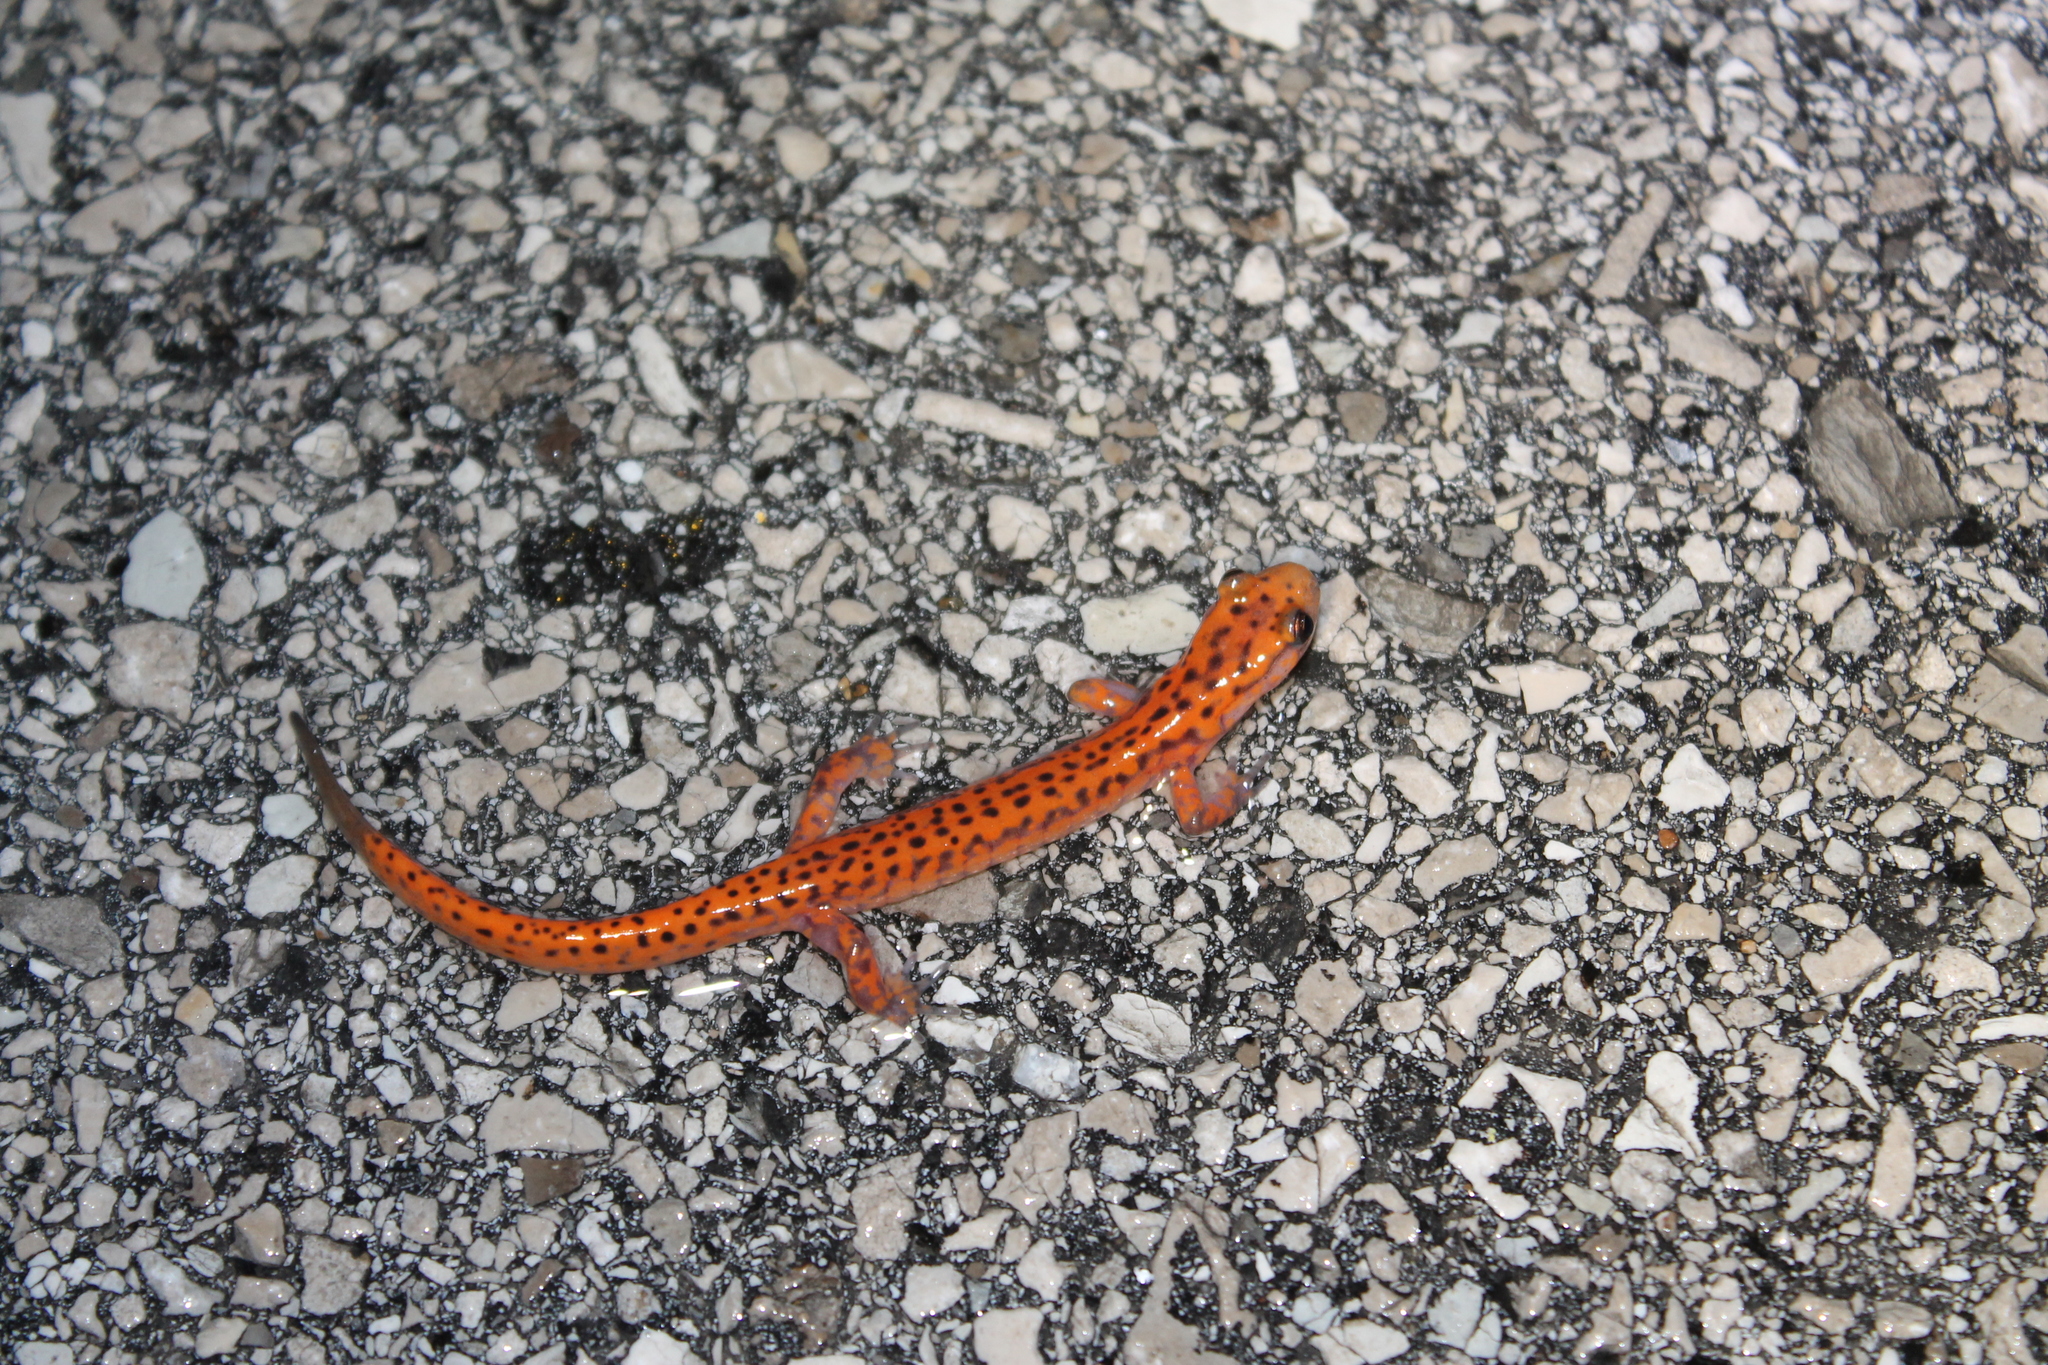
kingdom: Animalia
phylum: Chordata
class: Amphibia
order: Caudata
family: Plethodontidae
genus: Eurycea
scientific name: Eurycea lucifuga
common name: Cave salamander
